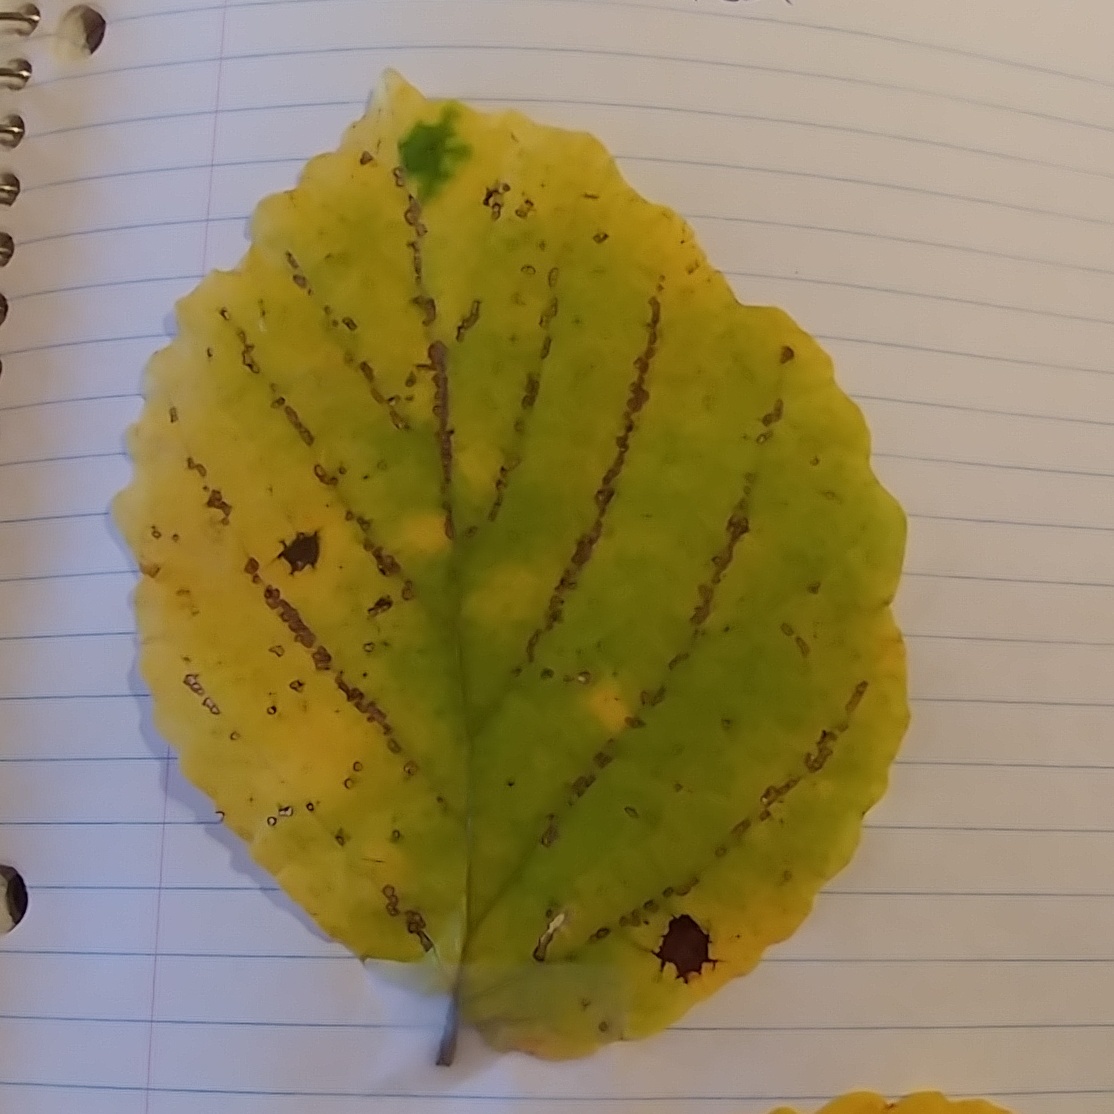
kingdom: Plantae
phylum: Tracheophyta
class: Magnoliopsida
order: Saxifragales
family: Hamamelidaceae
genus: Hamamelis
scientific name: Hamamelis virginiana
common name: Witch-hazel
